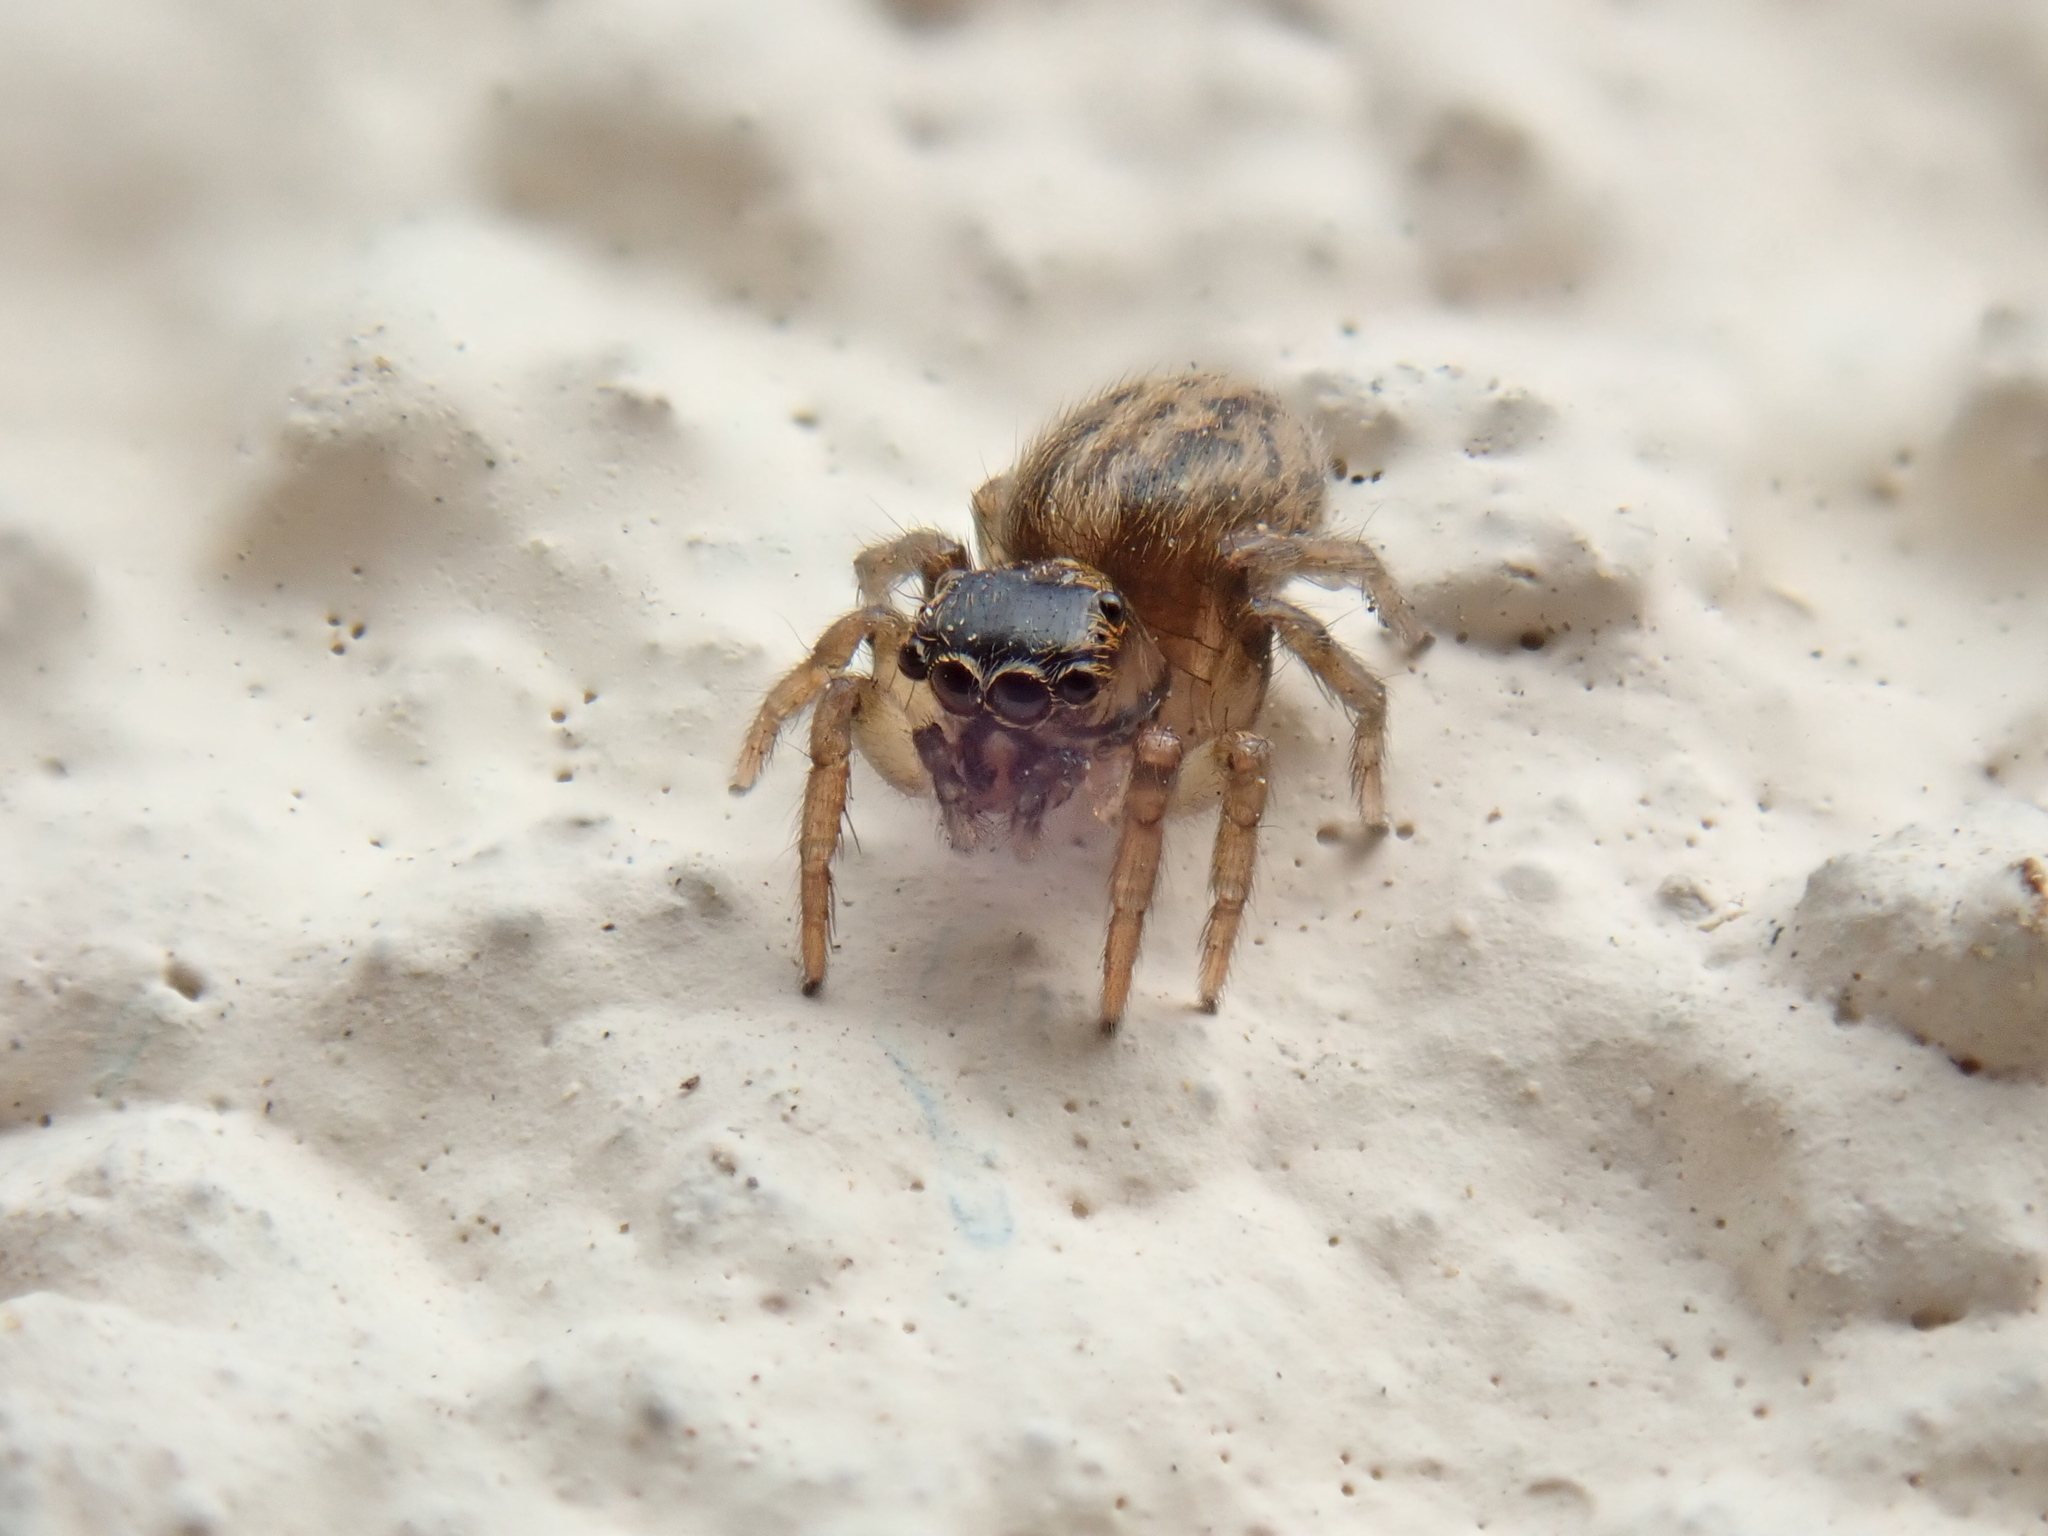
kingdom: Animalia
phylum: Arthropoda
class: Arachnida
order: Araneae
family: Salticidae
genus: Saitis
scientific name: Saitis tauricus
